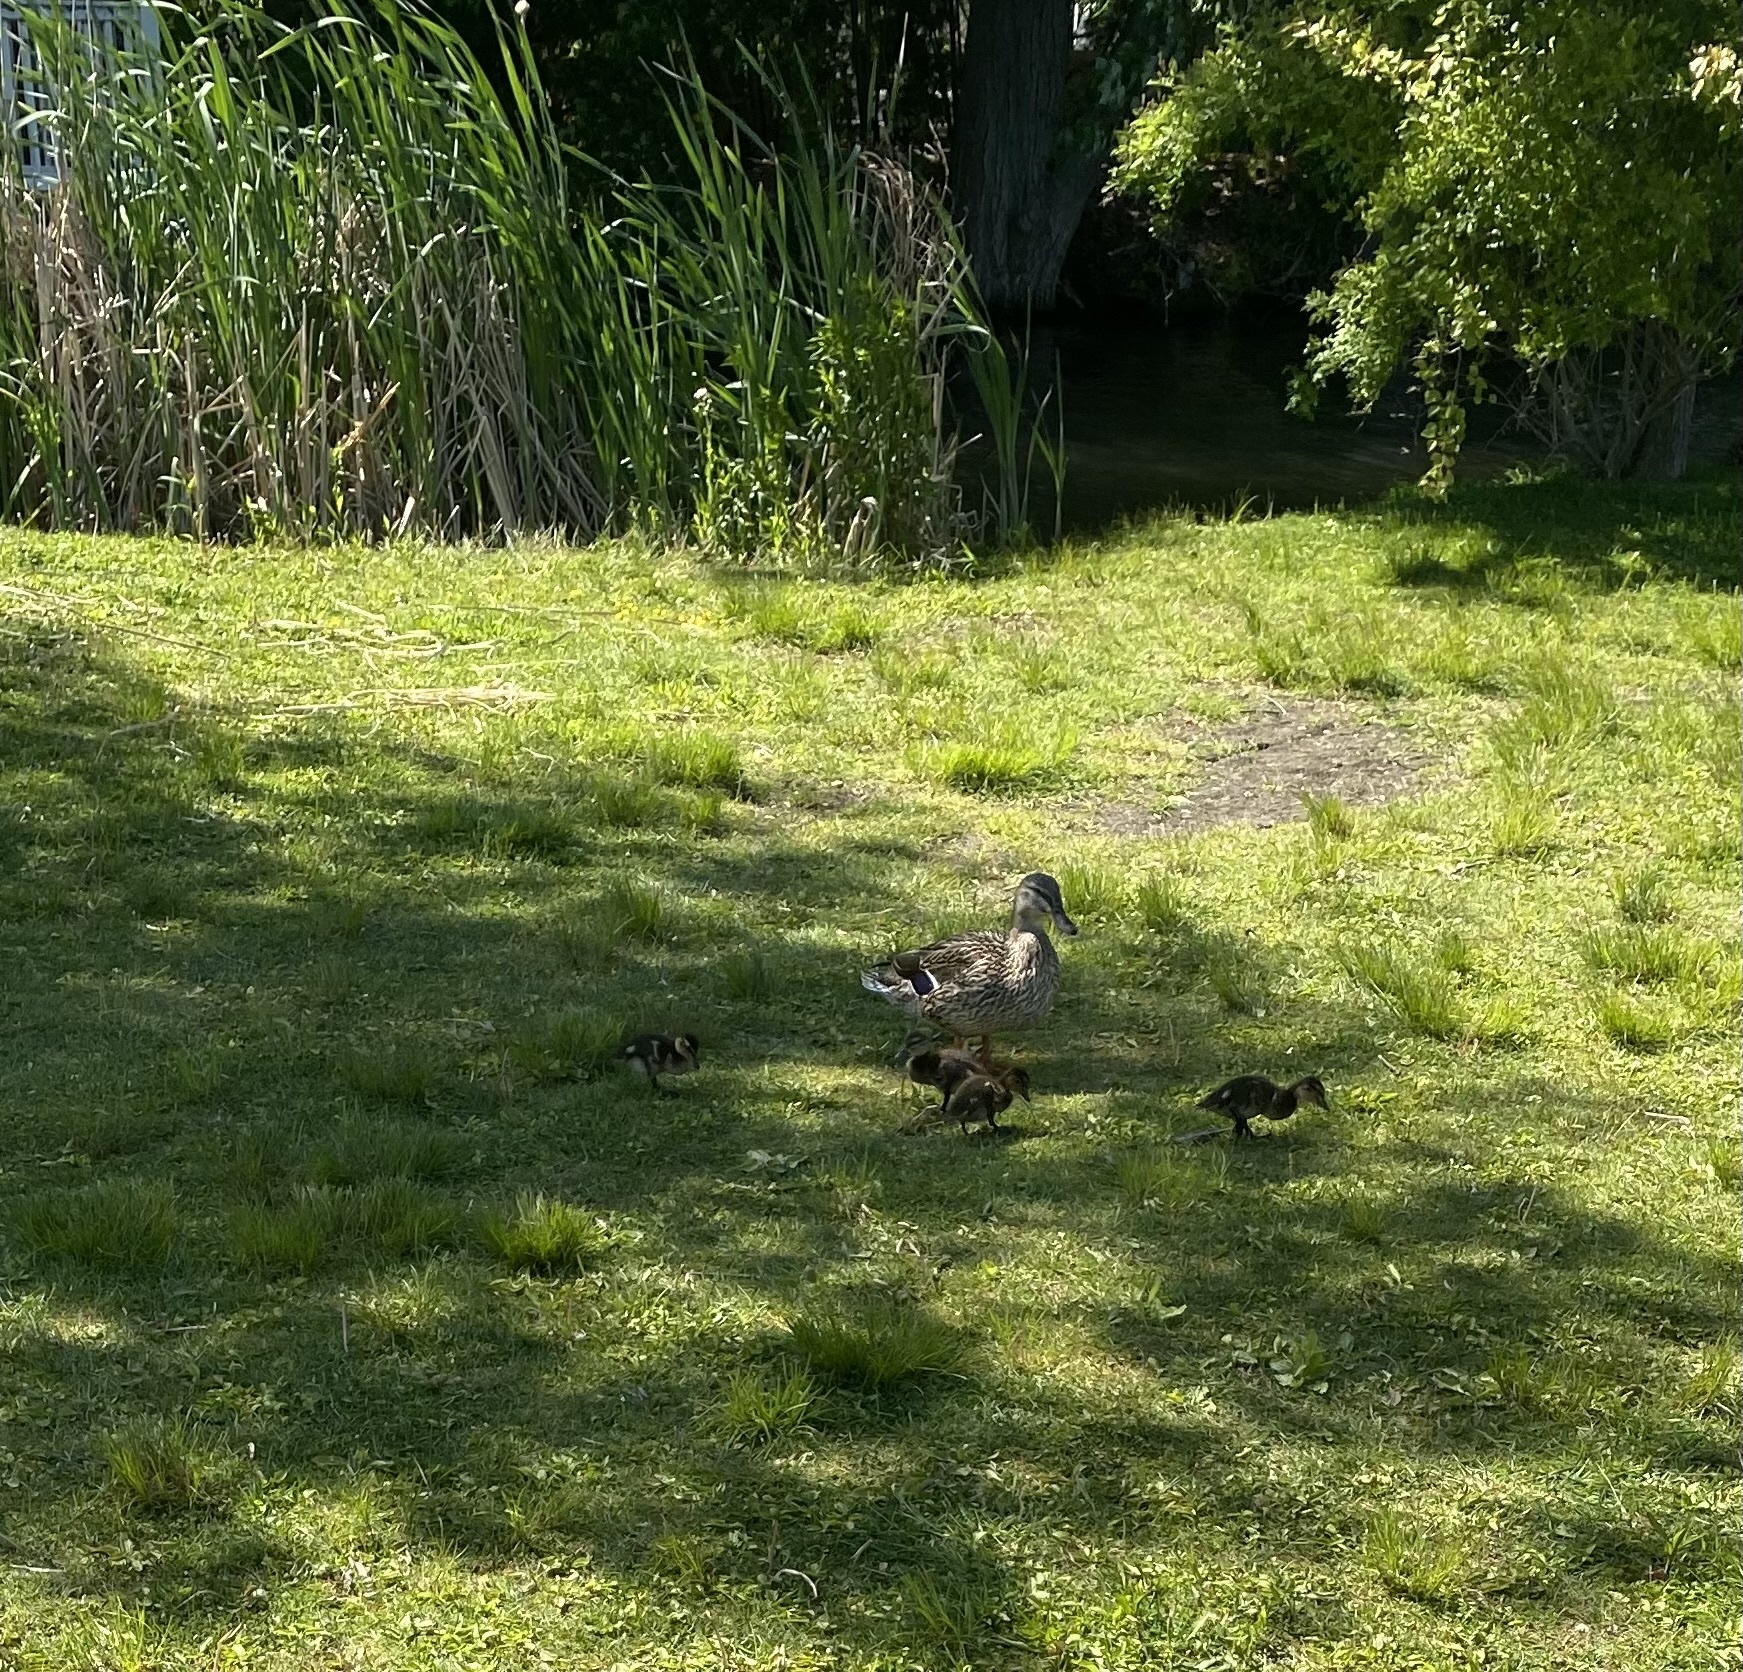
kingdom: Animalia
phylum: Chordata
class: Aves
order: Anseriformes
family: Anatidae
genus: Anas
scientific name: Anas platyrhynchos
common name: Mallard
